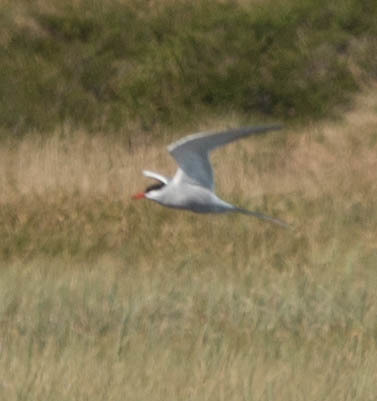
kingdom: Animalia
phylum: Chordata
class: Aves
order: Charadriiformes
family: Laridae
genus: Sterna
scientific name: Sterna paradisaea
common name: Arctic tern
